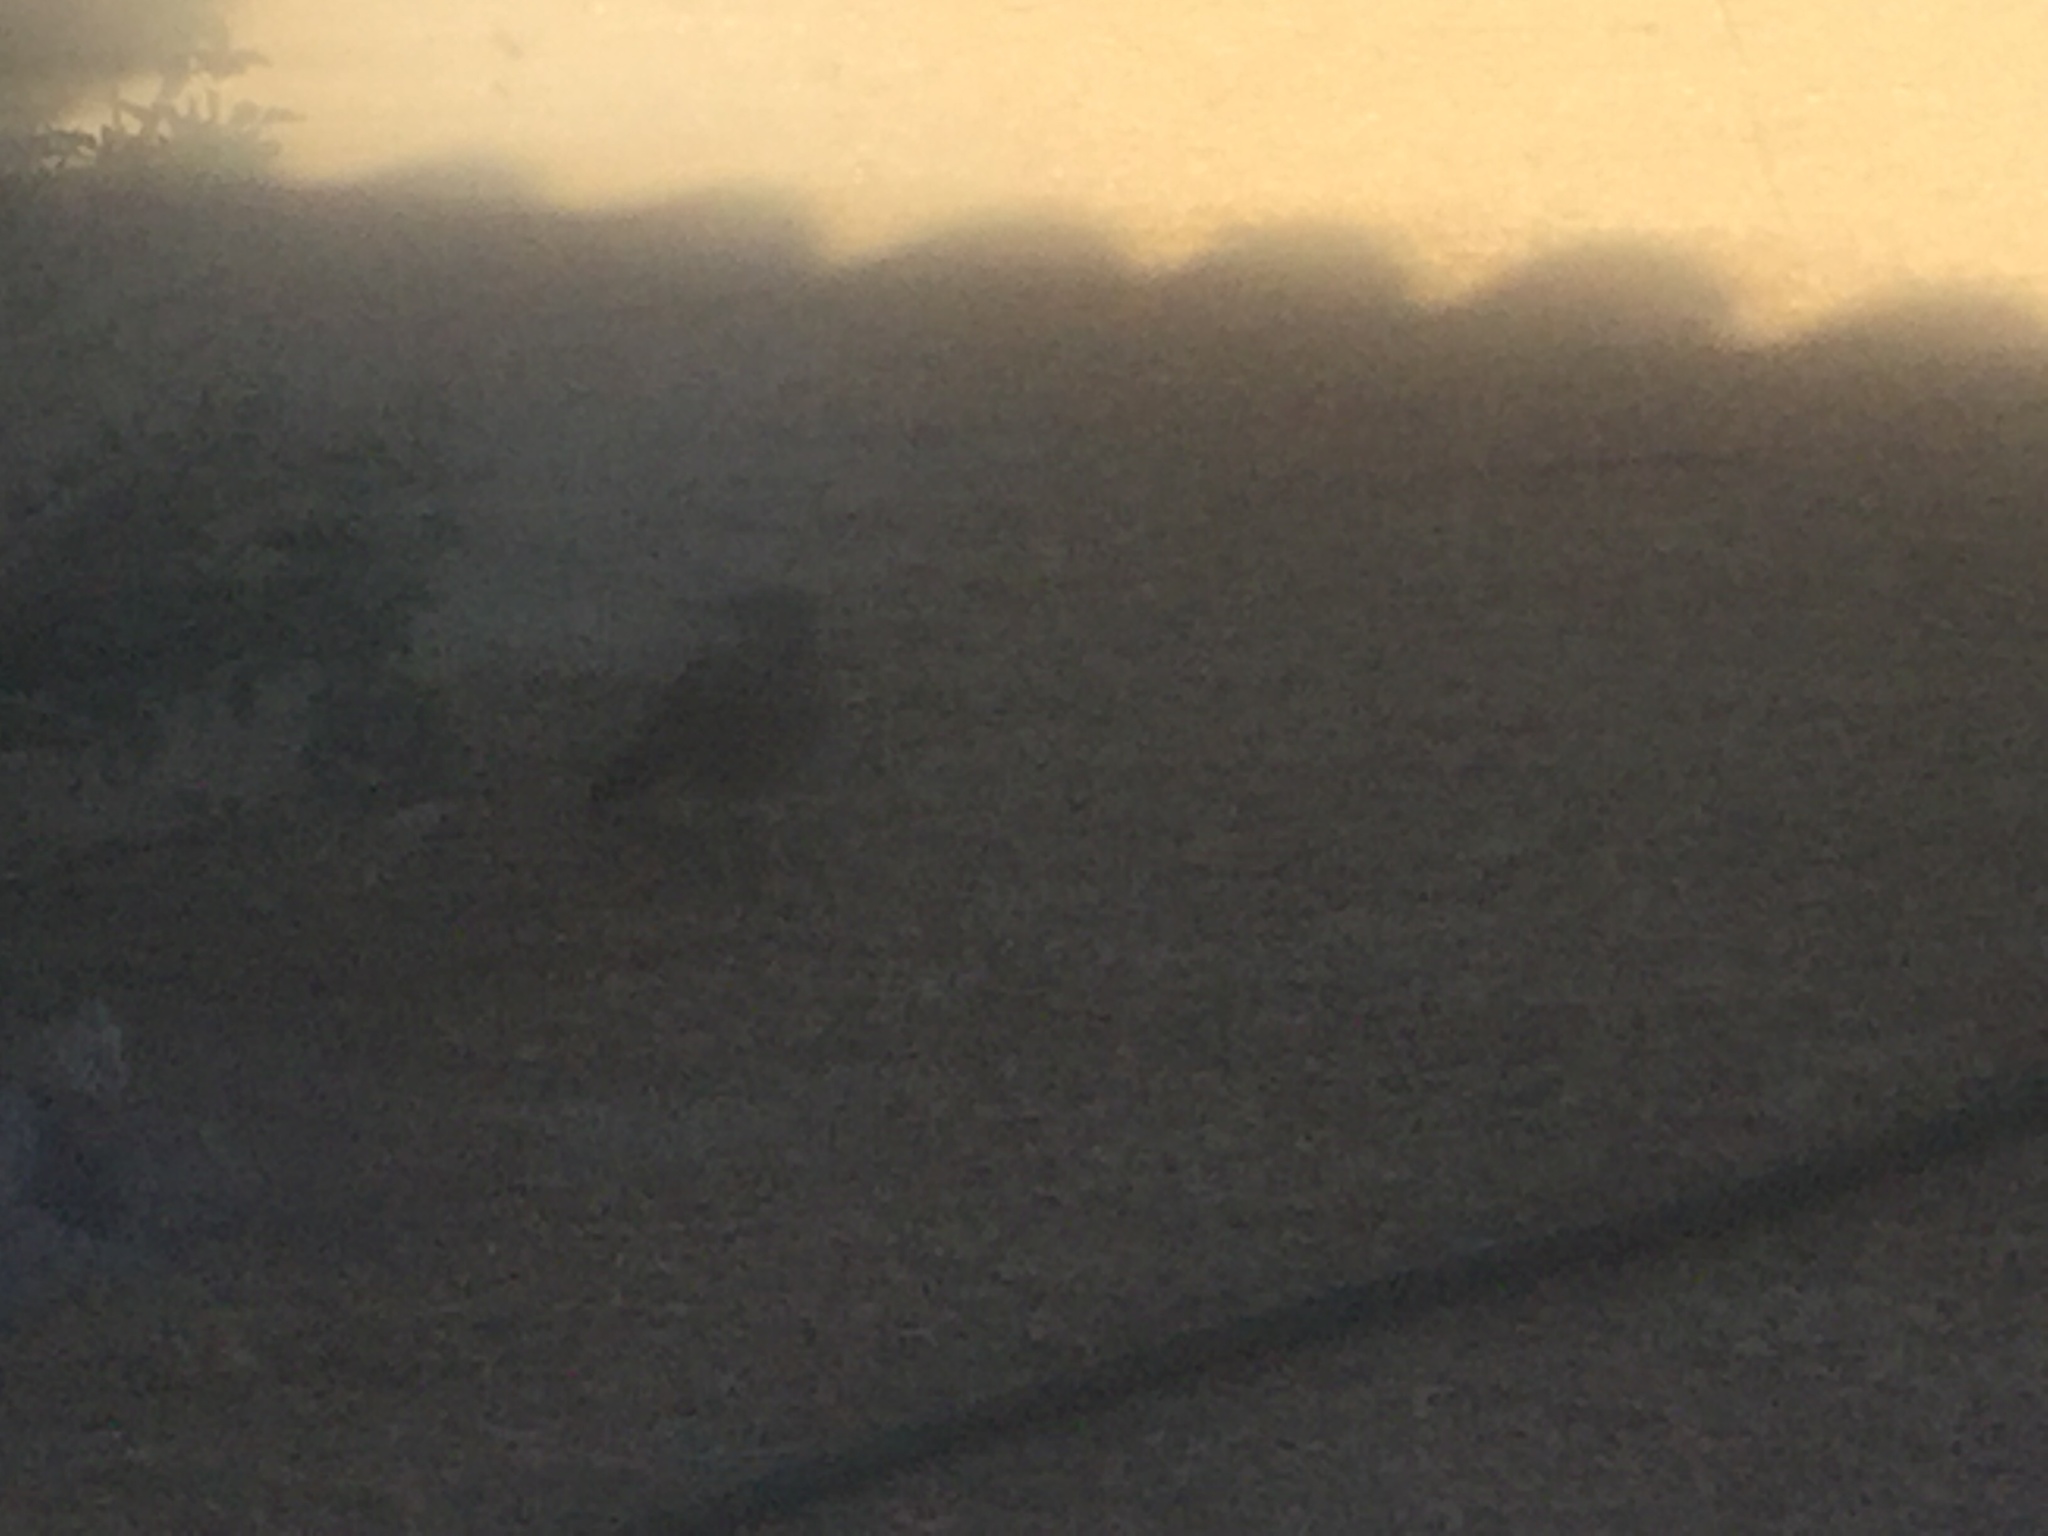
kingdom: Animalia
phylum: Chordata
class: Aves
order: Cuculiformes
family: Cuculidae
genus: Geococcyx
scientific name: Geococcyx californianus
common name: Greater roadrunner
